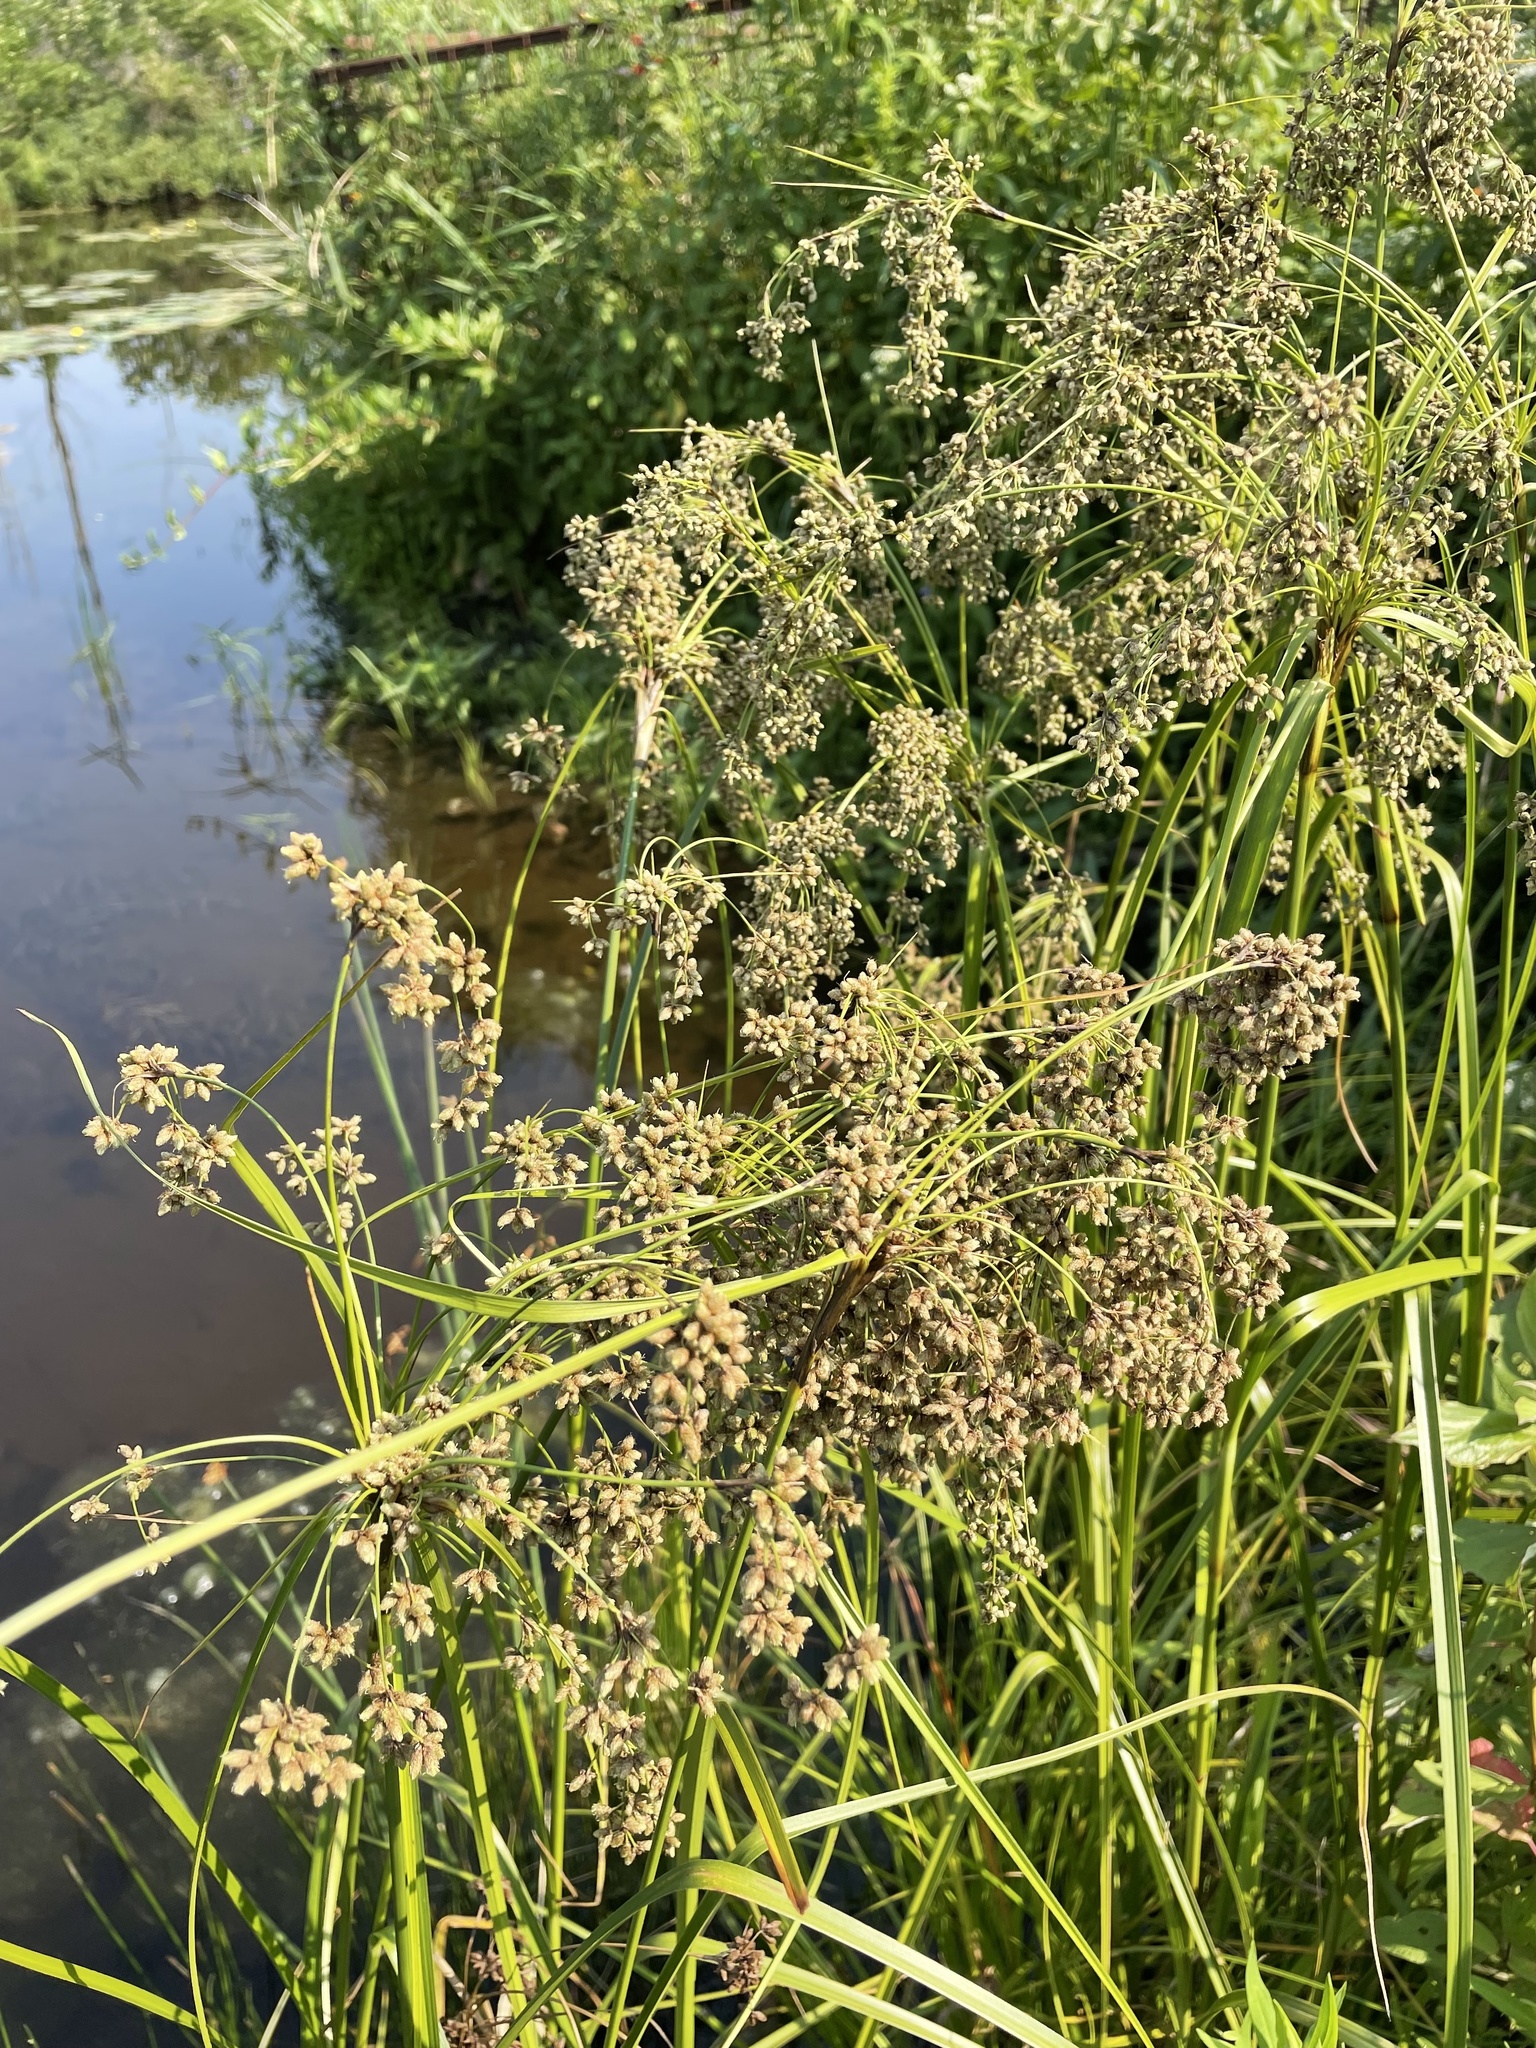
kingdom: Plantae
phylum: Tracheophyta
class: Liliopsida
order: Poales
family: Cyperaceae
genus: Scirpus
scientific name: Scirpus cyperinus
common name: Black-sheathed bulrush
